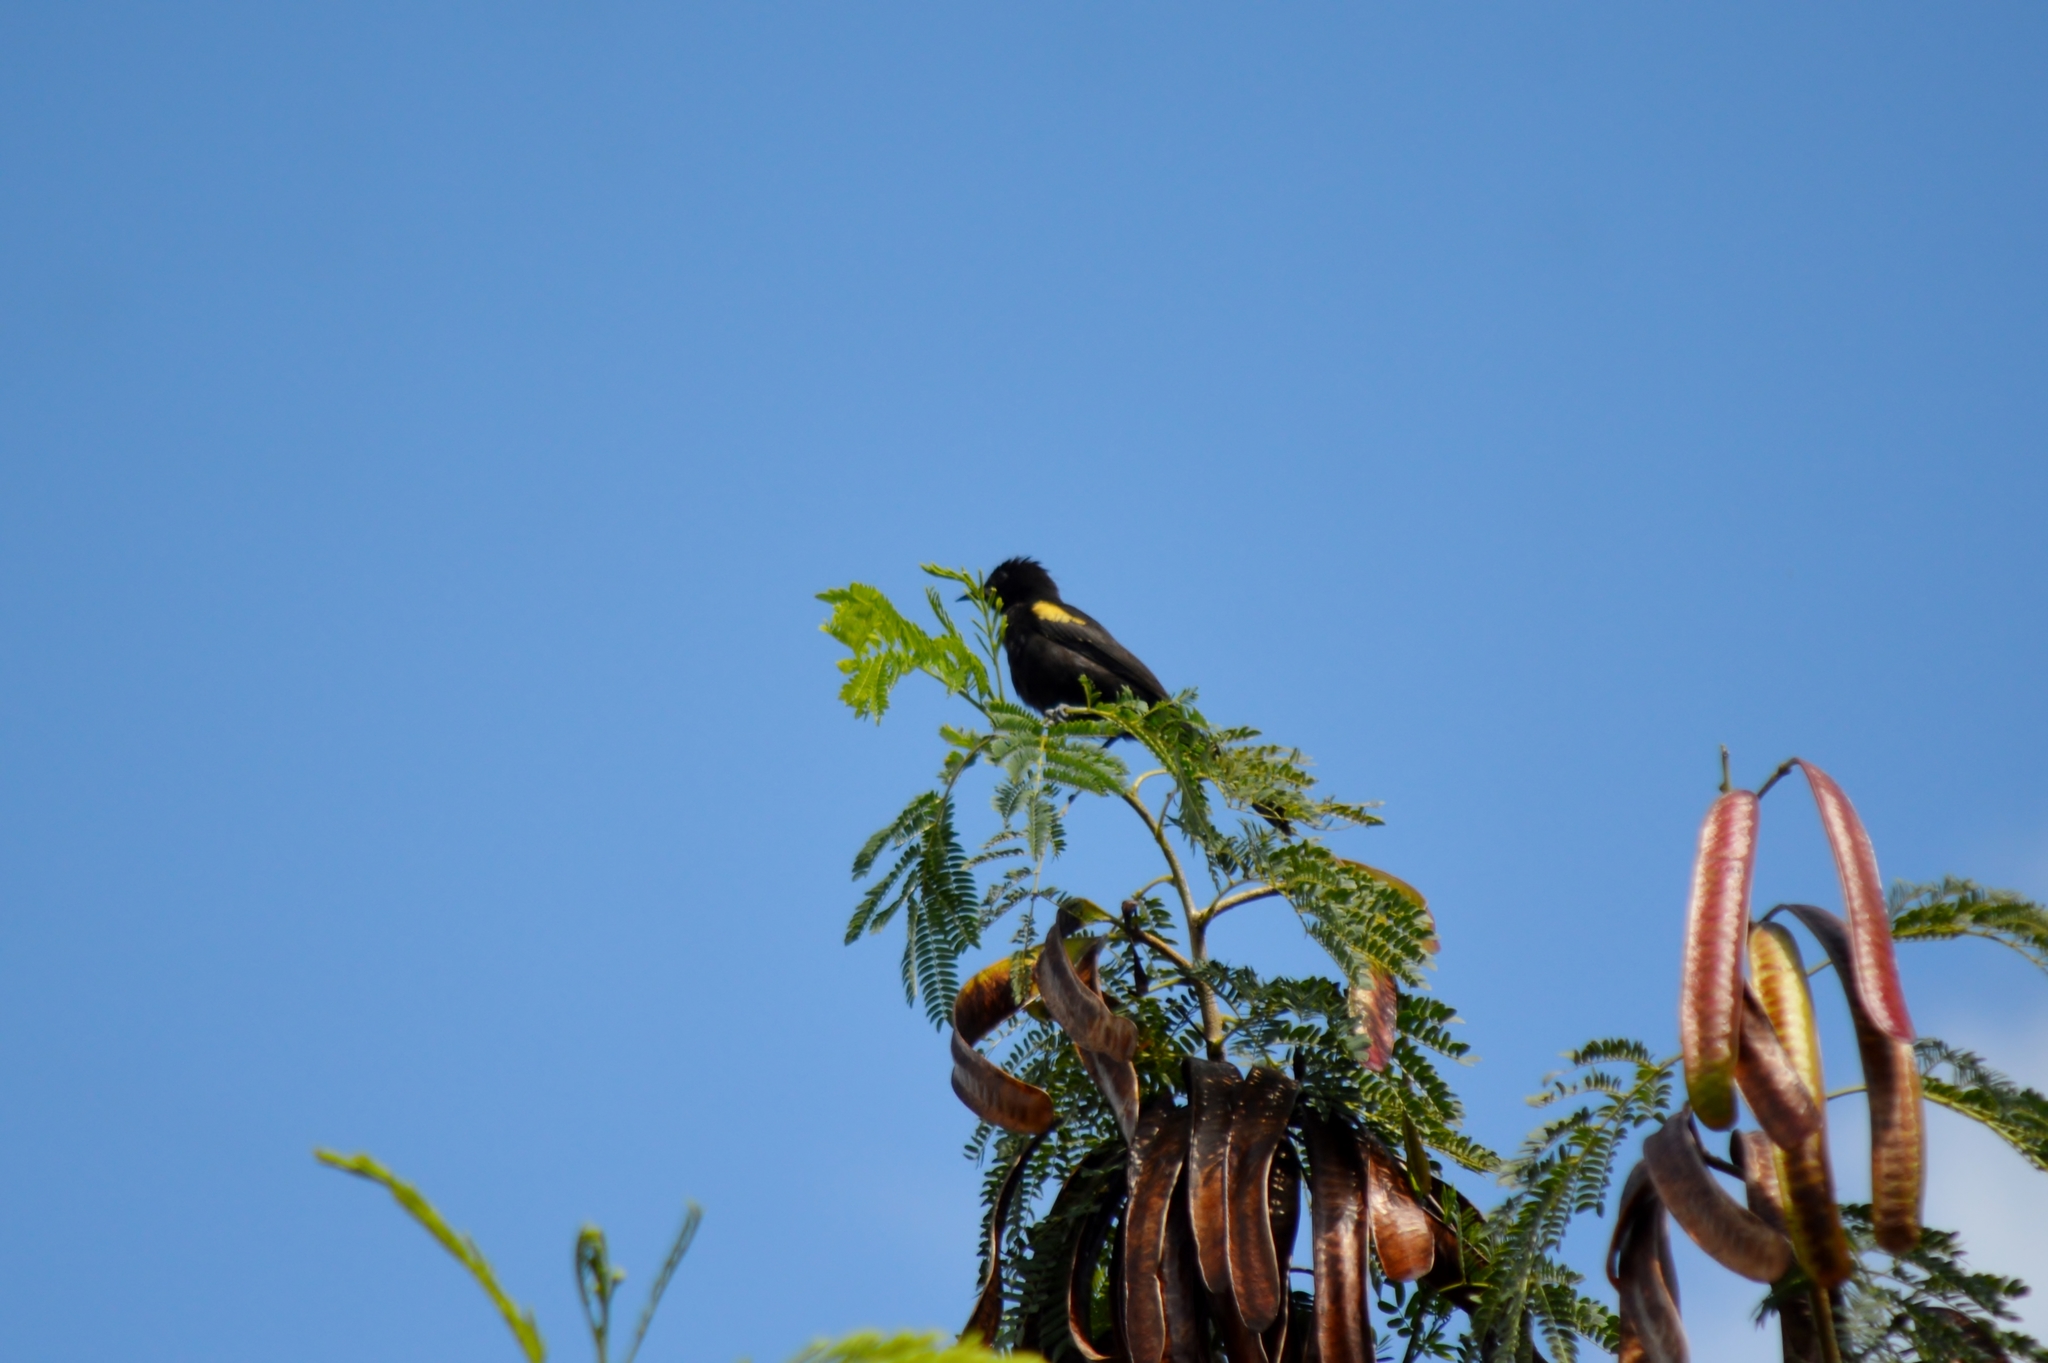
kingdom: Animalia
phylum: Chordata
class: Aves
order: Passeriformes
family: Icteridae
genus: Icterus
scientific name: Icterus cayanensis
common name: Epaulet oriole
